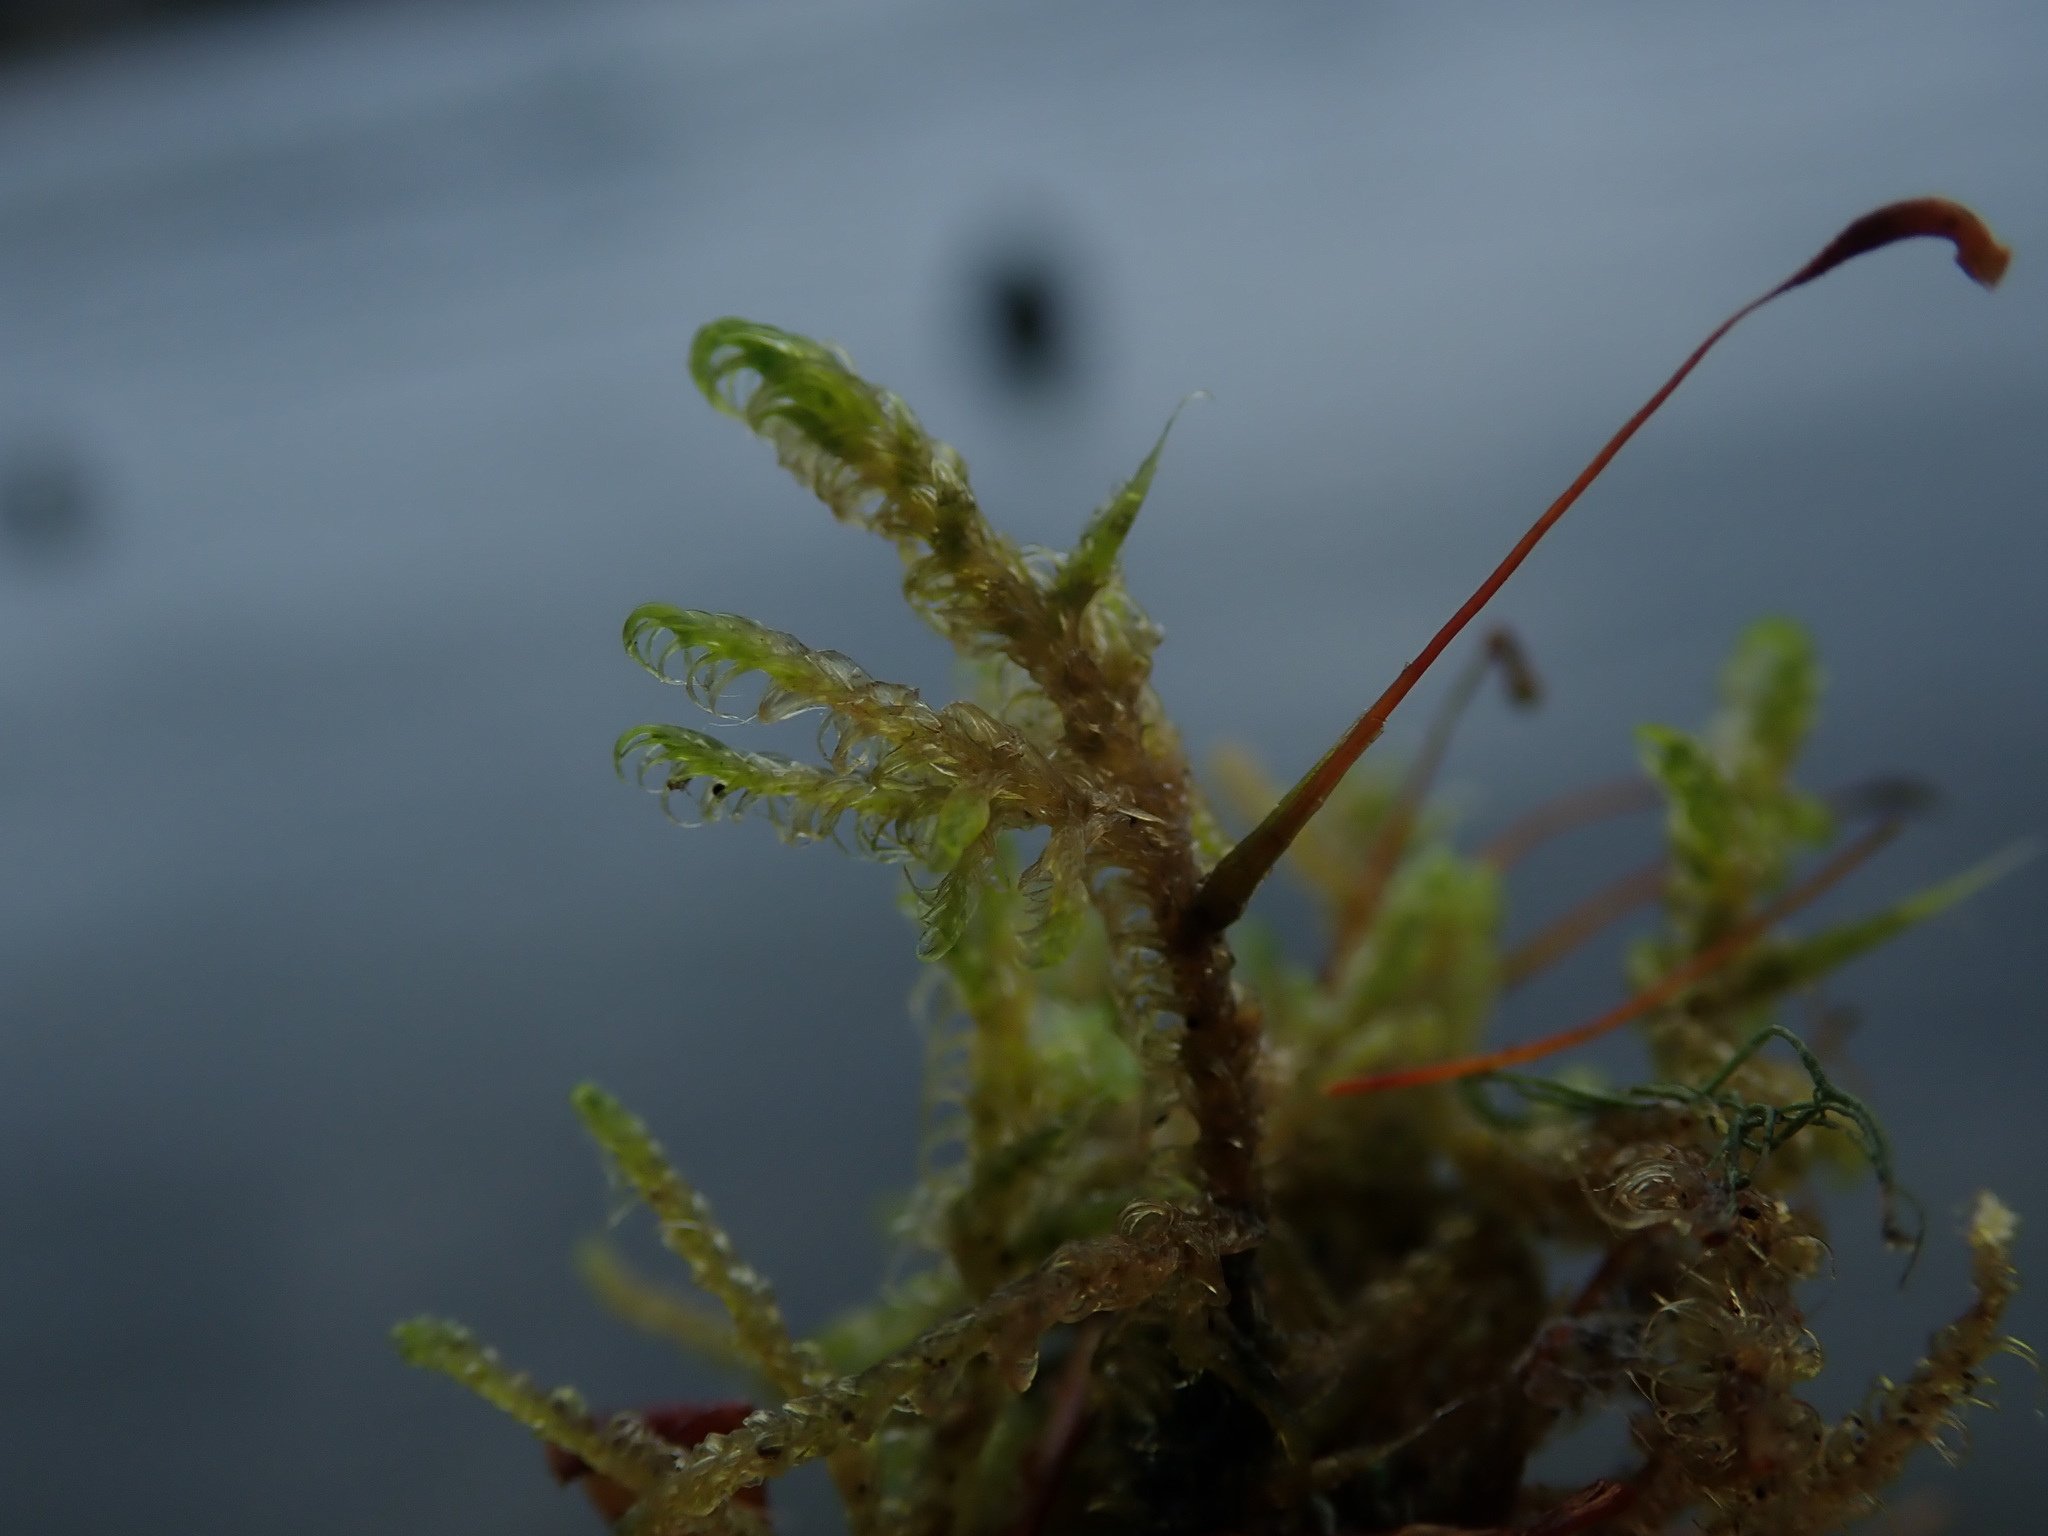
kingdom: Plantae
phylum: Bryophyta
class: Bryopsida
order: Hypnales
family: Scorpidiaceae
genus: Sanionia
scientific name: Sanionia uncinata
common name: Sickle moss
